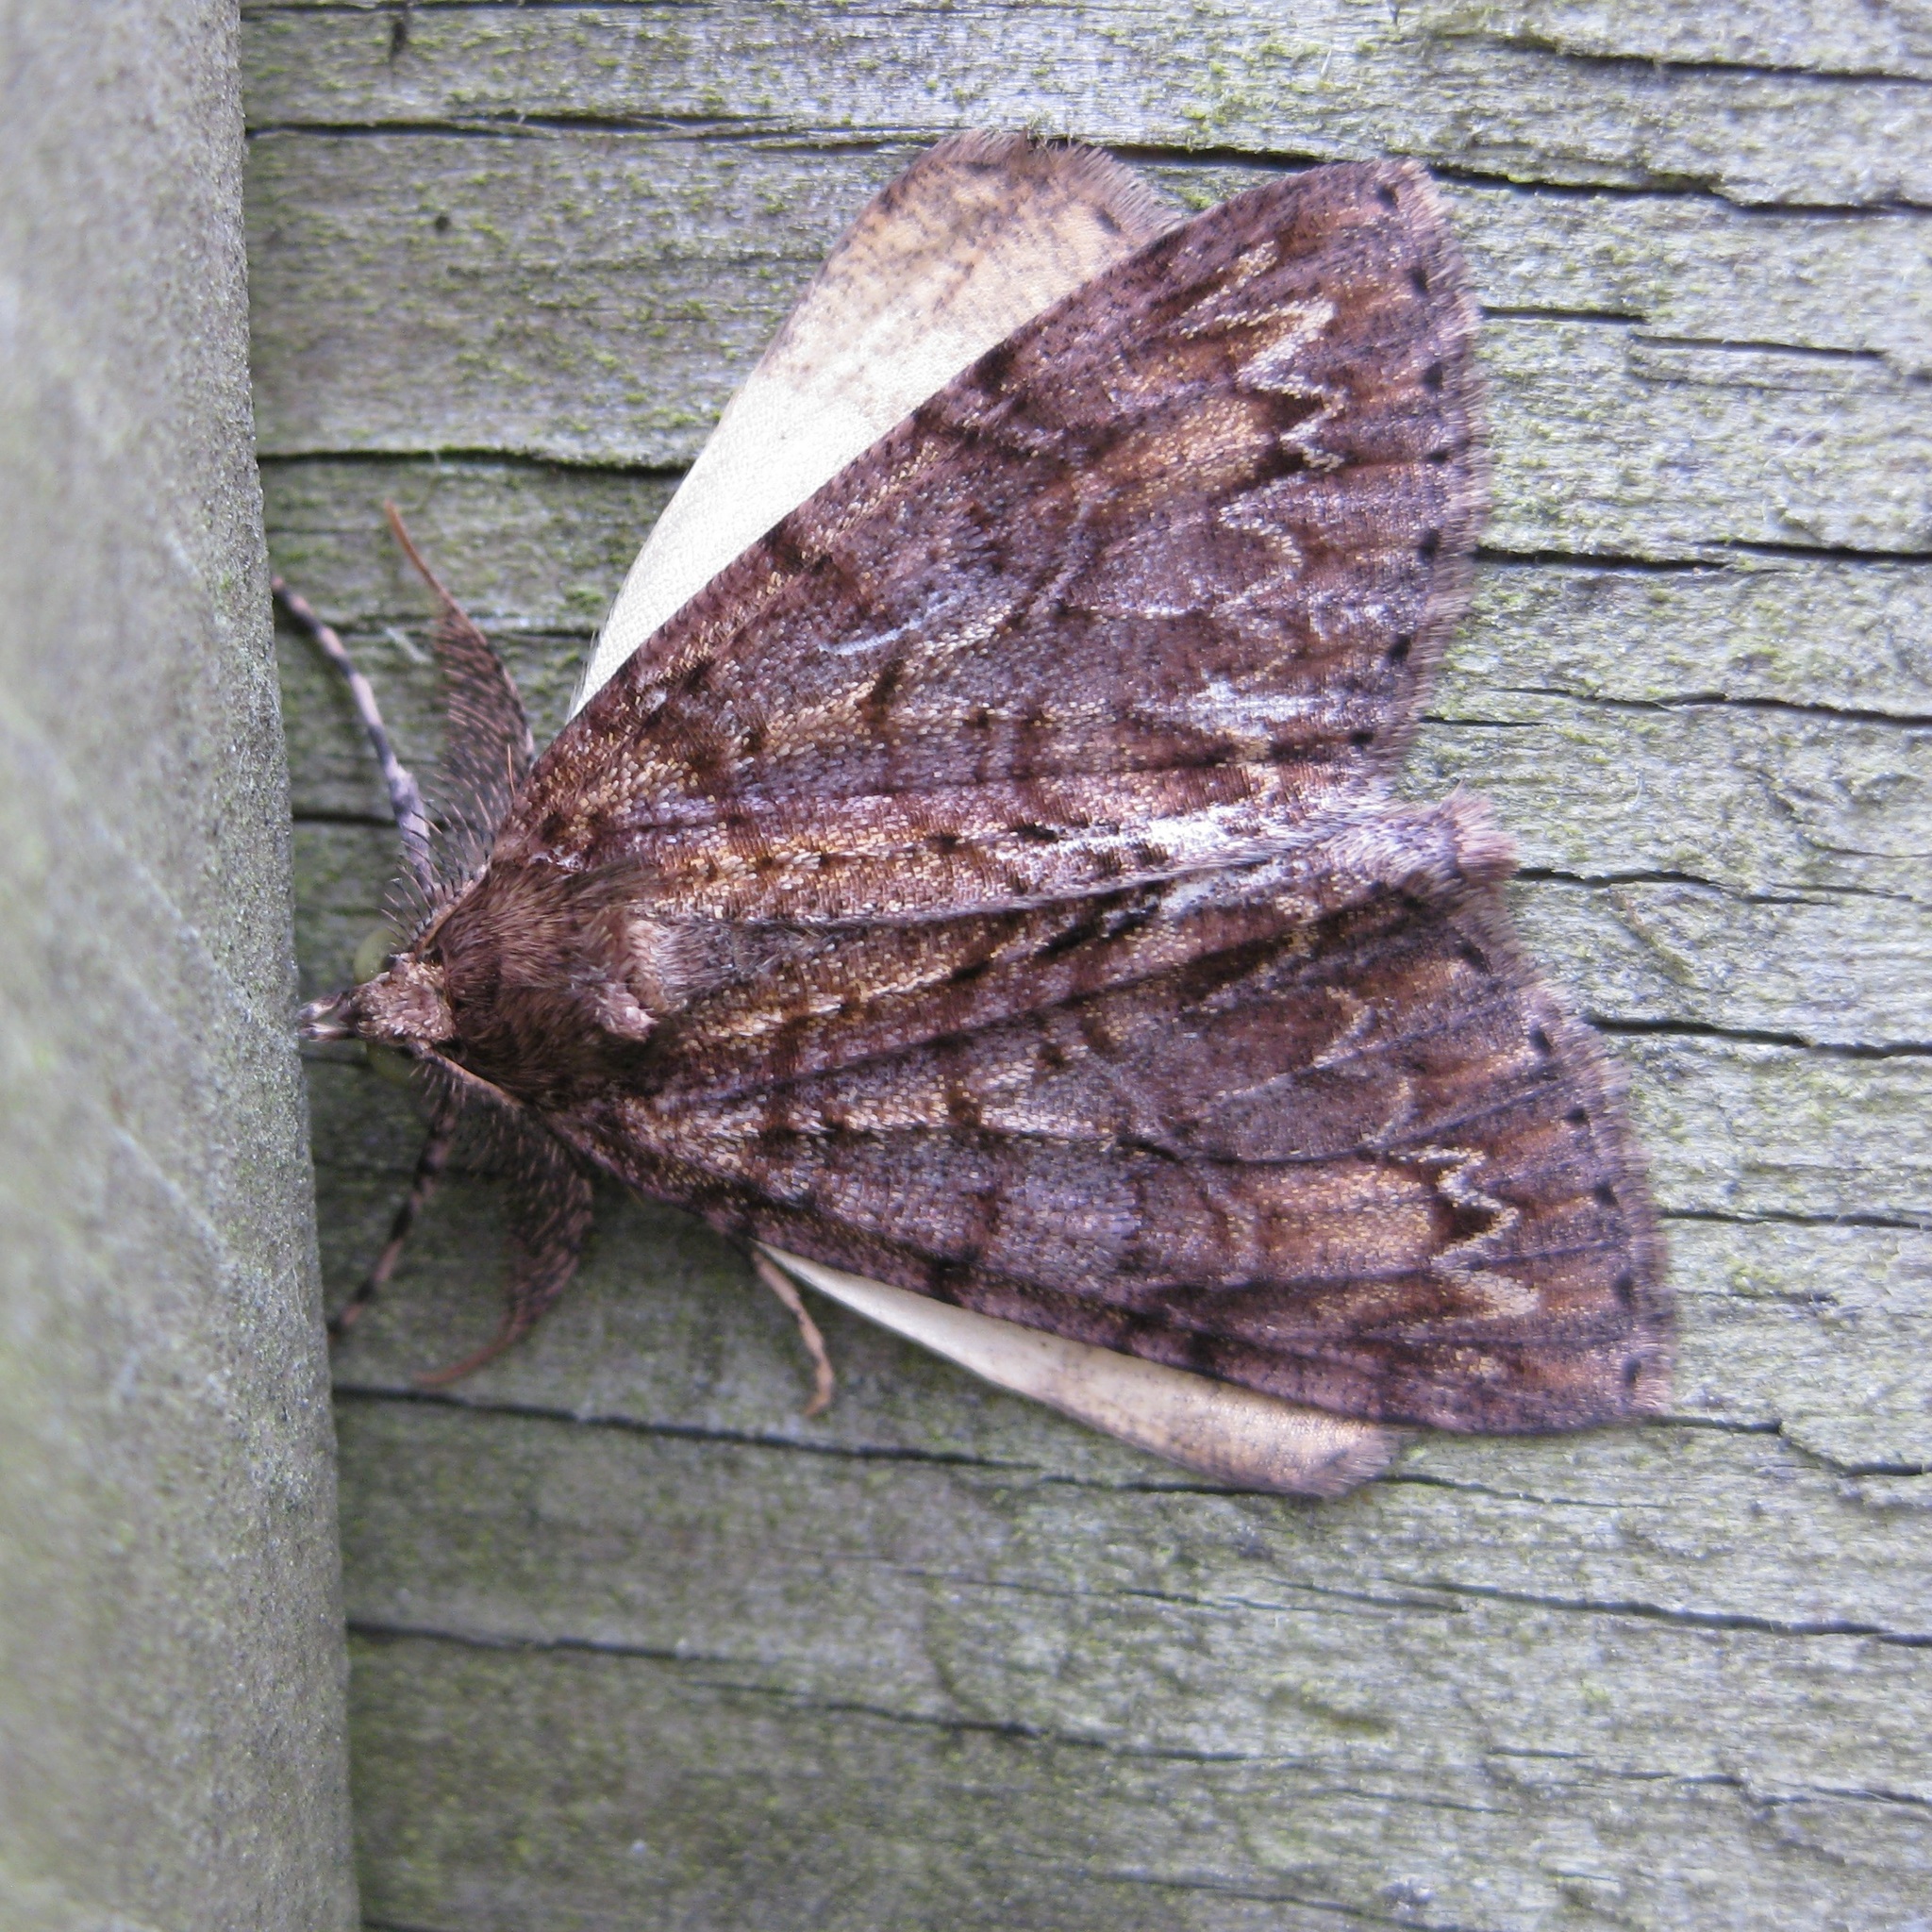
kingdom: Animalia
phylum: Arthropoda
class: Insecta
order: Lepidoptera
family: Geometridae
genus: Pseudocoremia
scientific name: Pseudocoremia suavis
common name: Common forest looper
